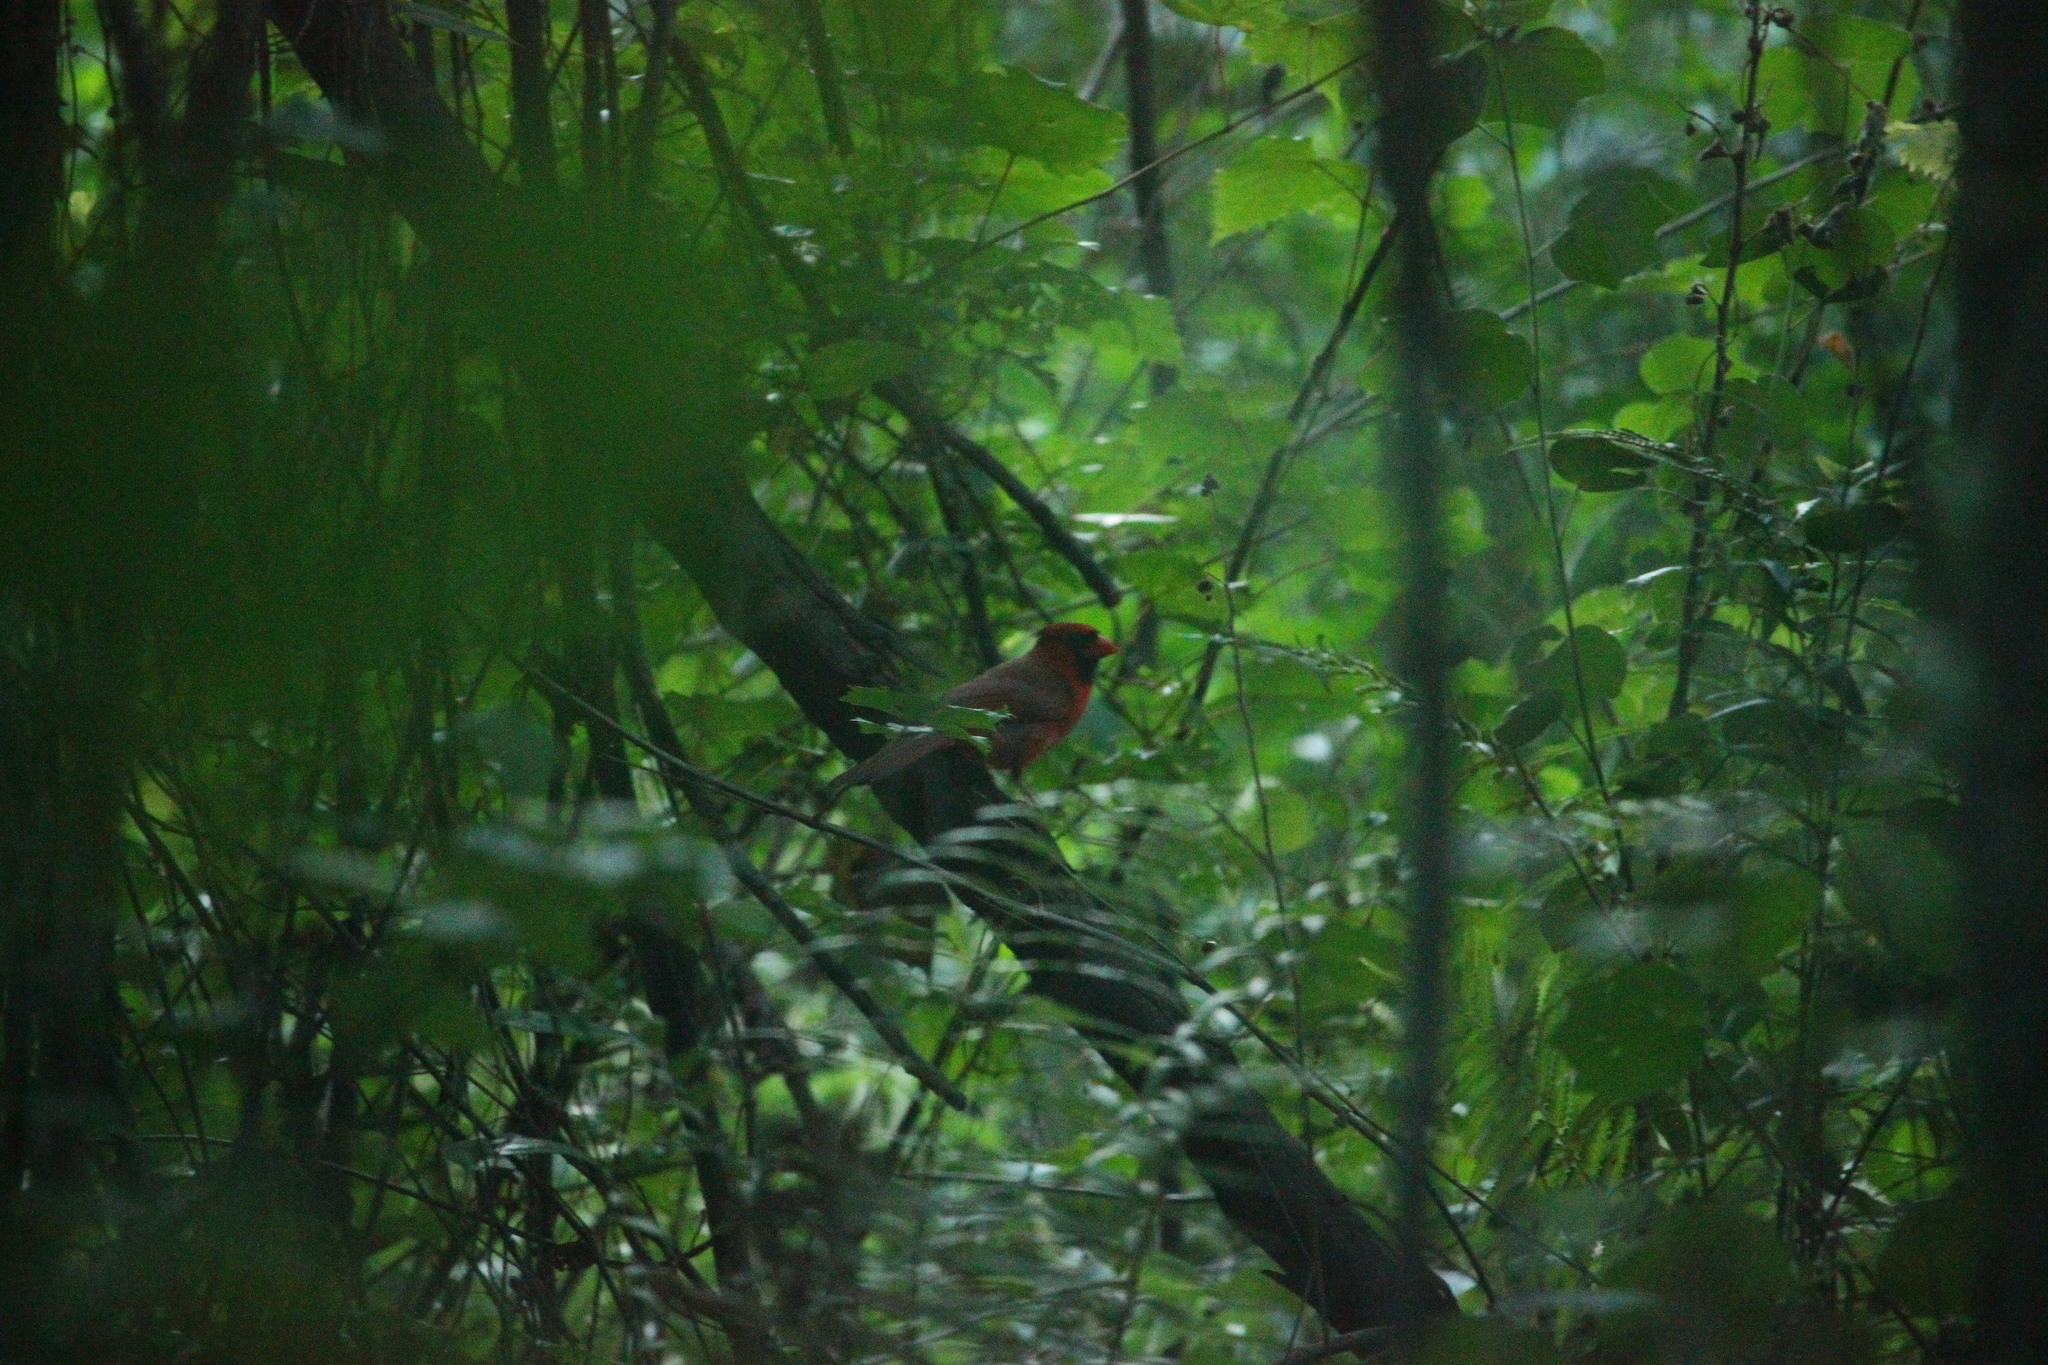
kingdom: Animalia
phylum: Chordata
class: Aves
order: Passeriformes
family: Cardinalidae
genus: Cardinalis
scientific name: Cardinalis cardinalis
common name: Northern cardinal
